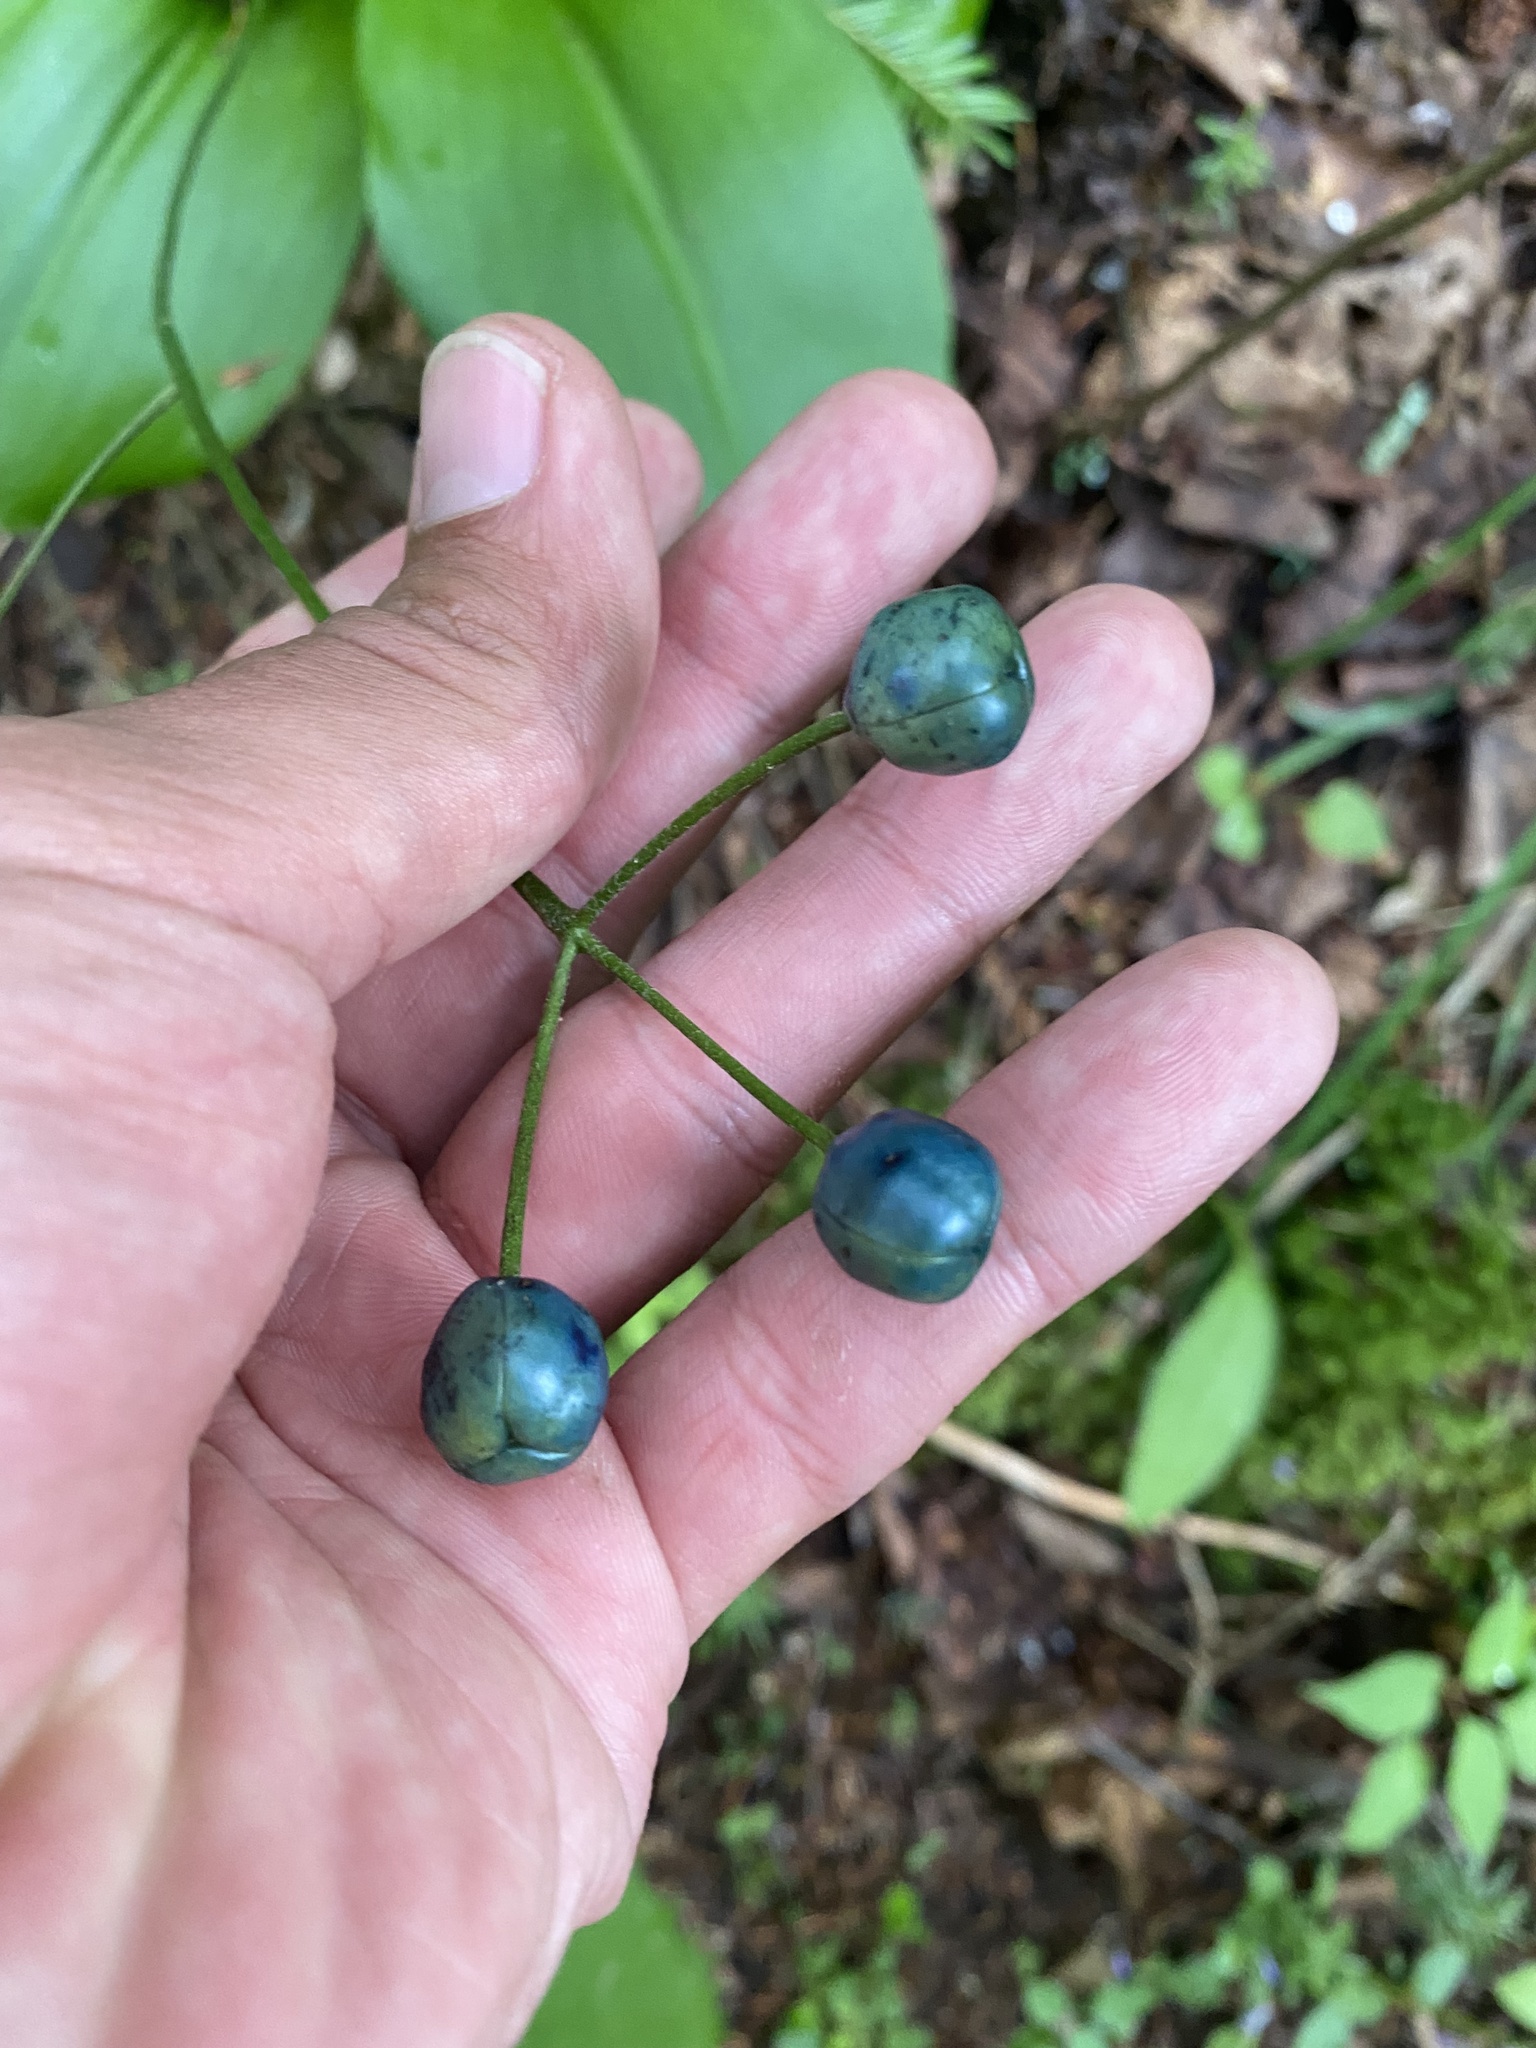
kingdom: Plantae
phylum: Tracheophyta
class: Liliopsida
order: Liliales
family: Liliaceae
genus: Clintonia
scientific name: Clintonia udensis
